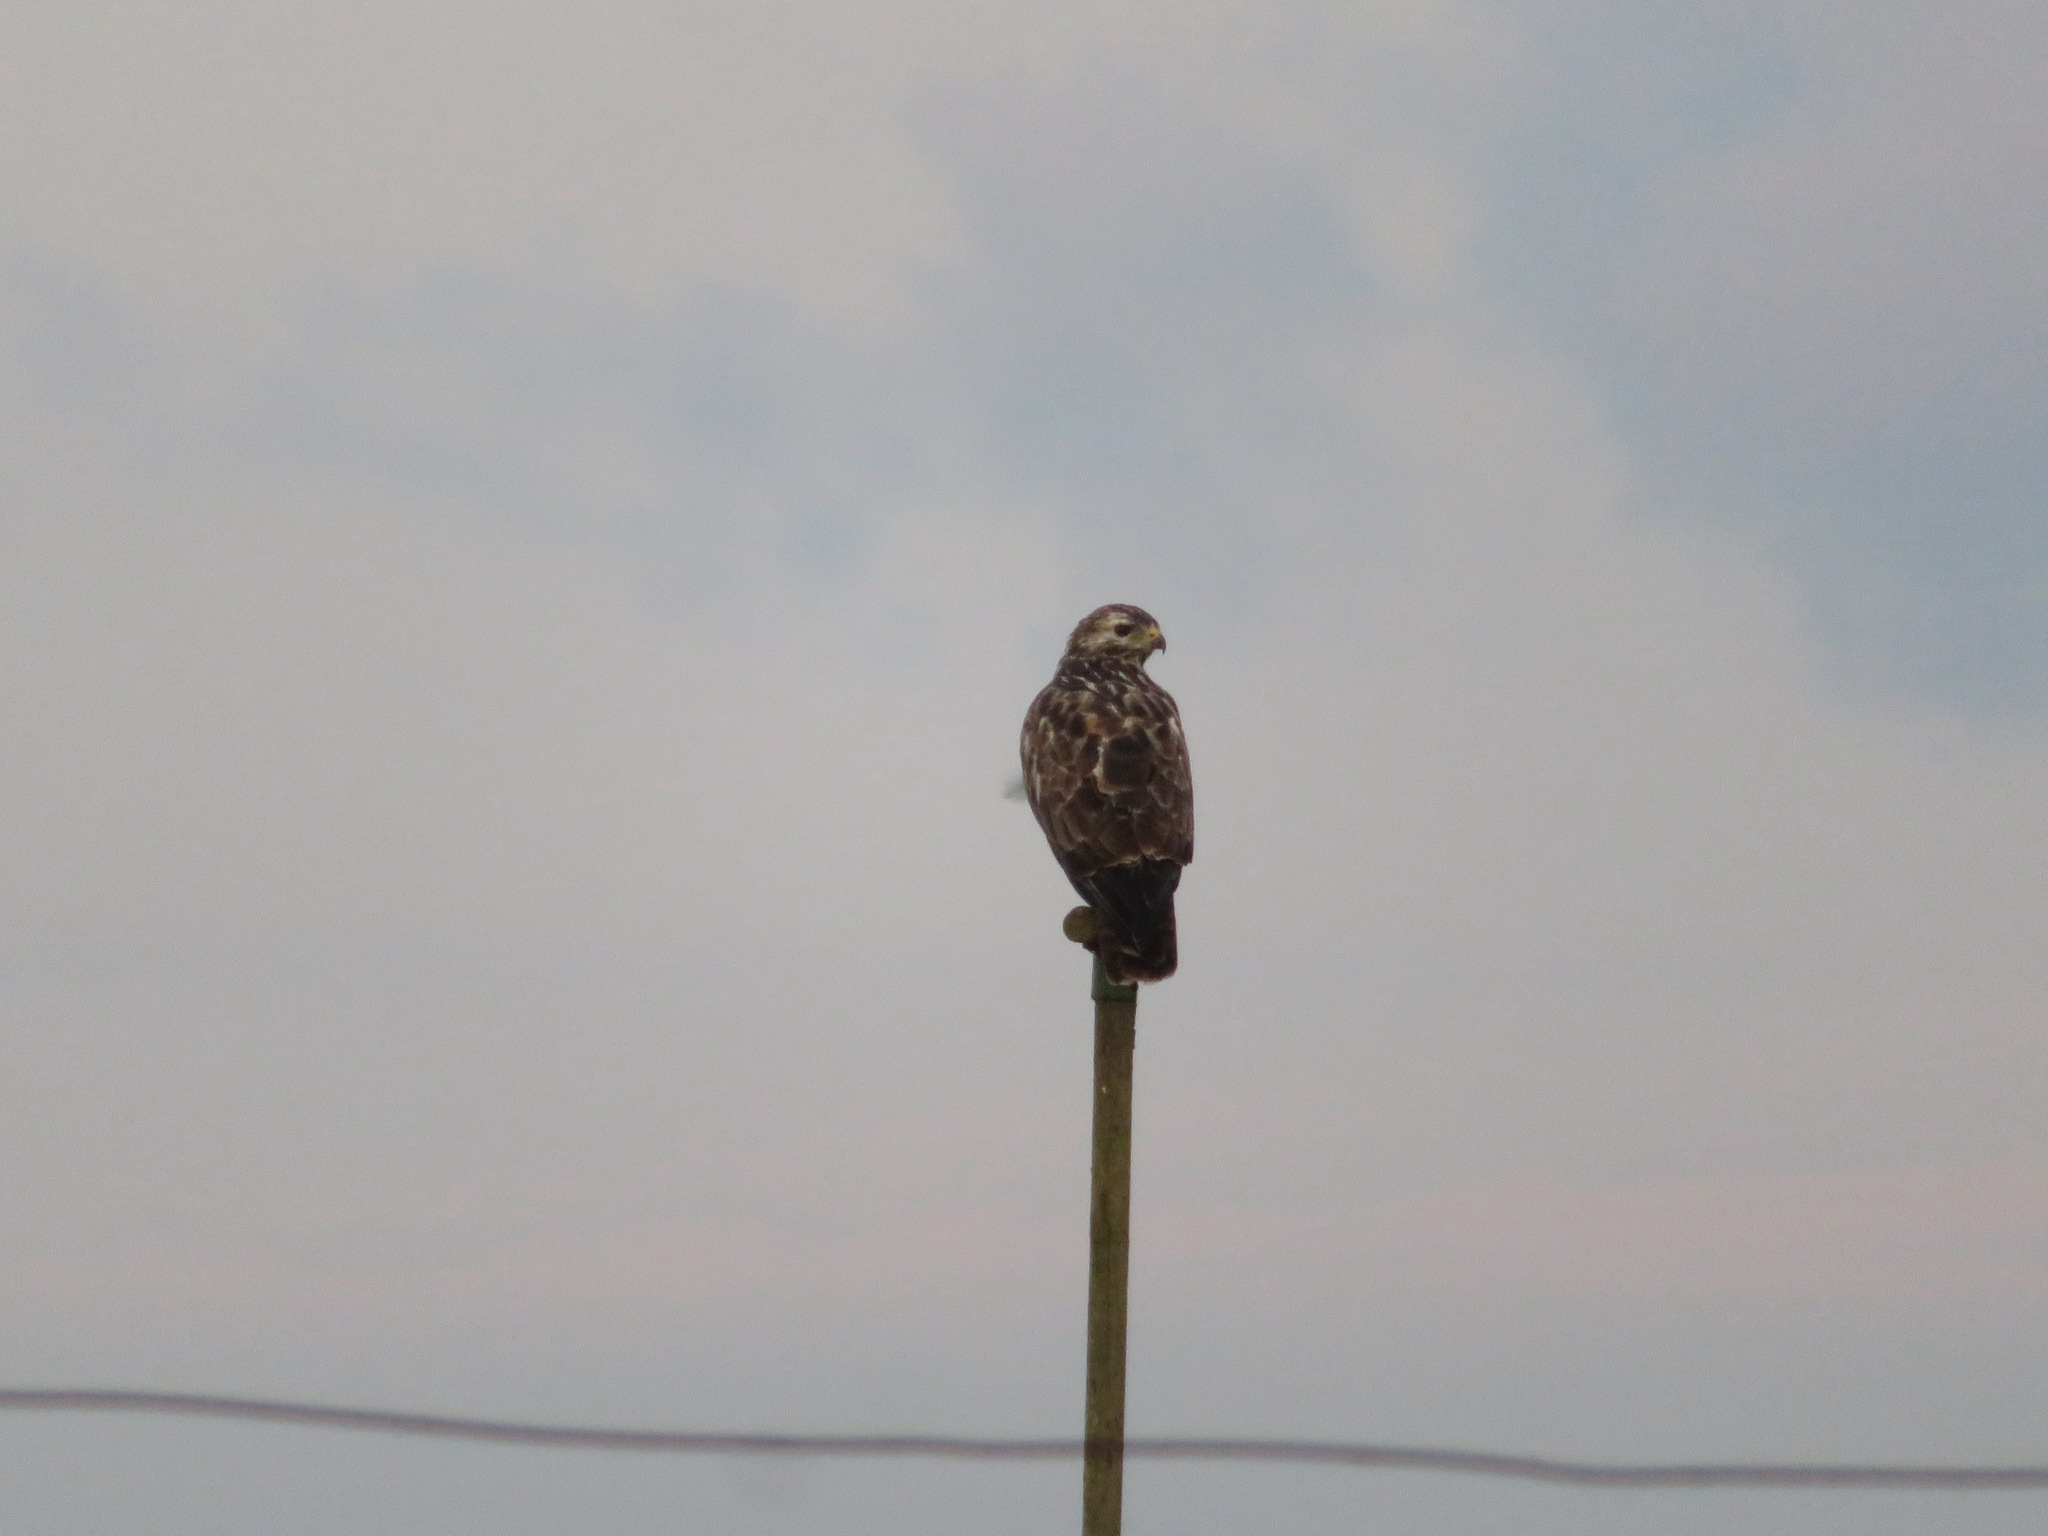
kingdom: Animalia
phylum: Chordata
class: Aves
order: Accipitriformes
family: Accipitridae
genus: Buteo
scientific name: Buteo buteo
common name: Common buzzard
